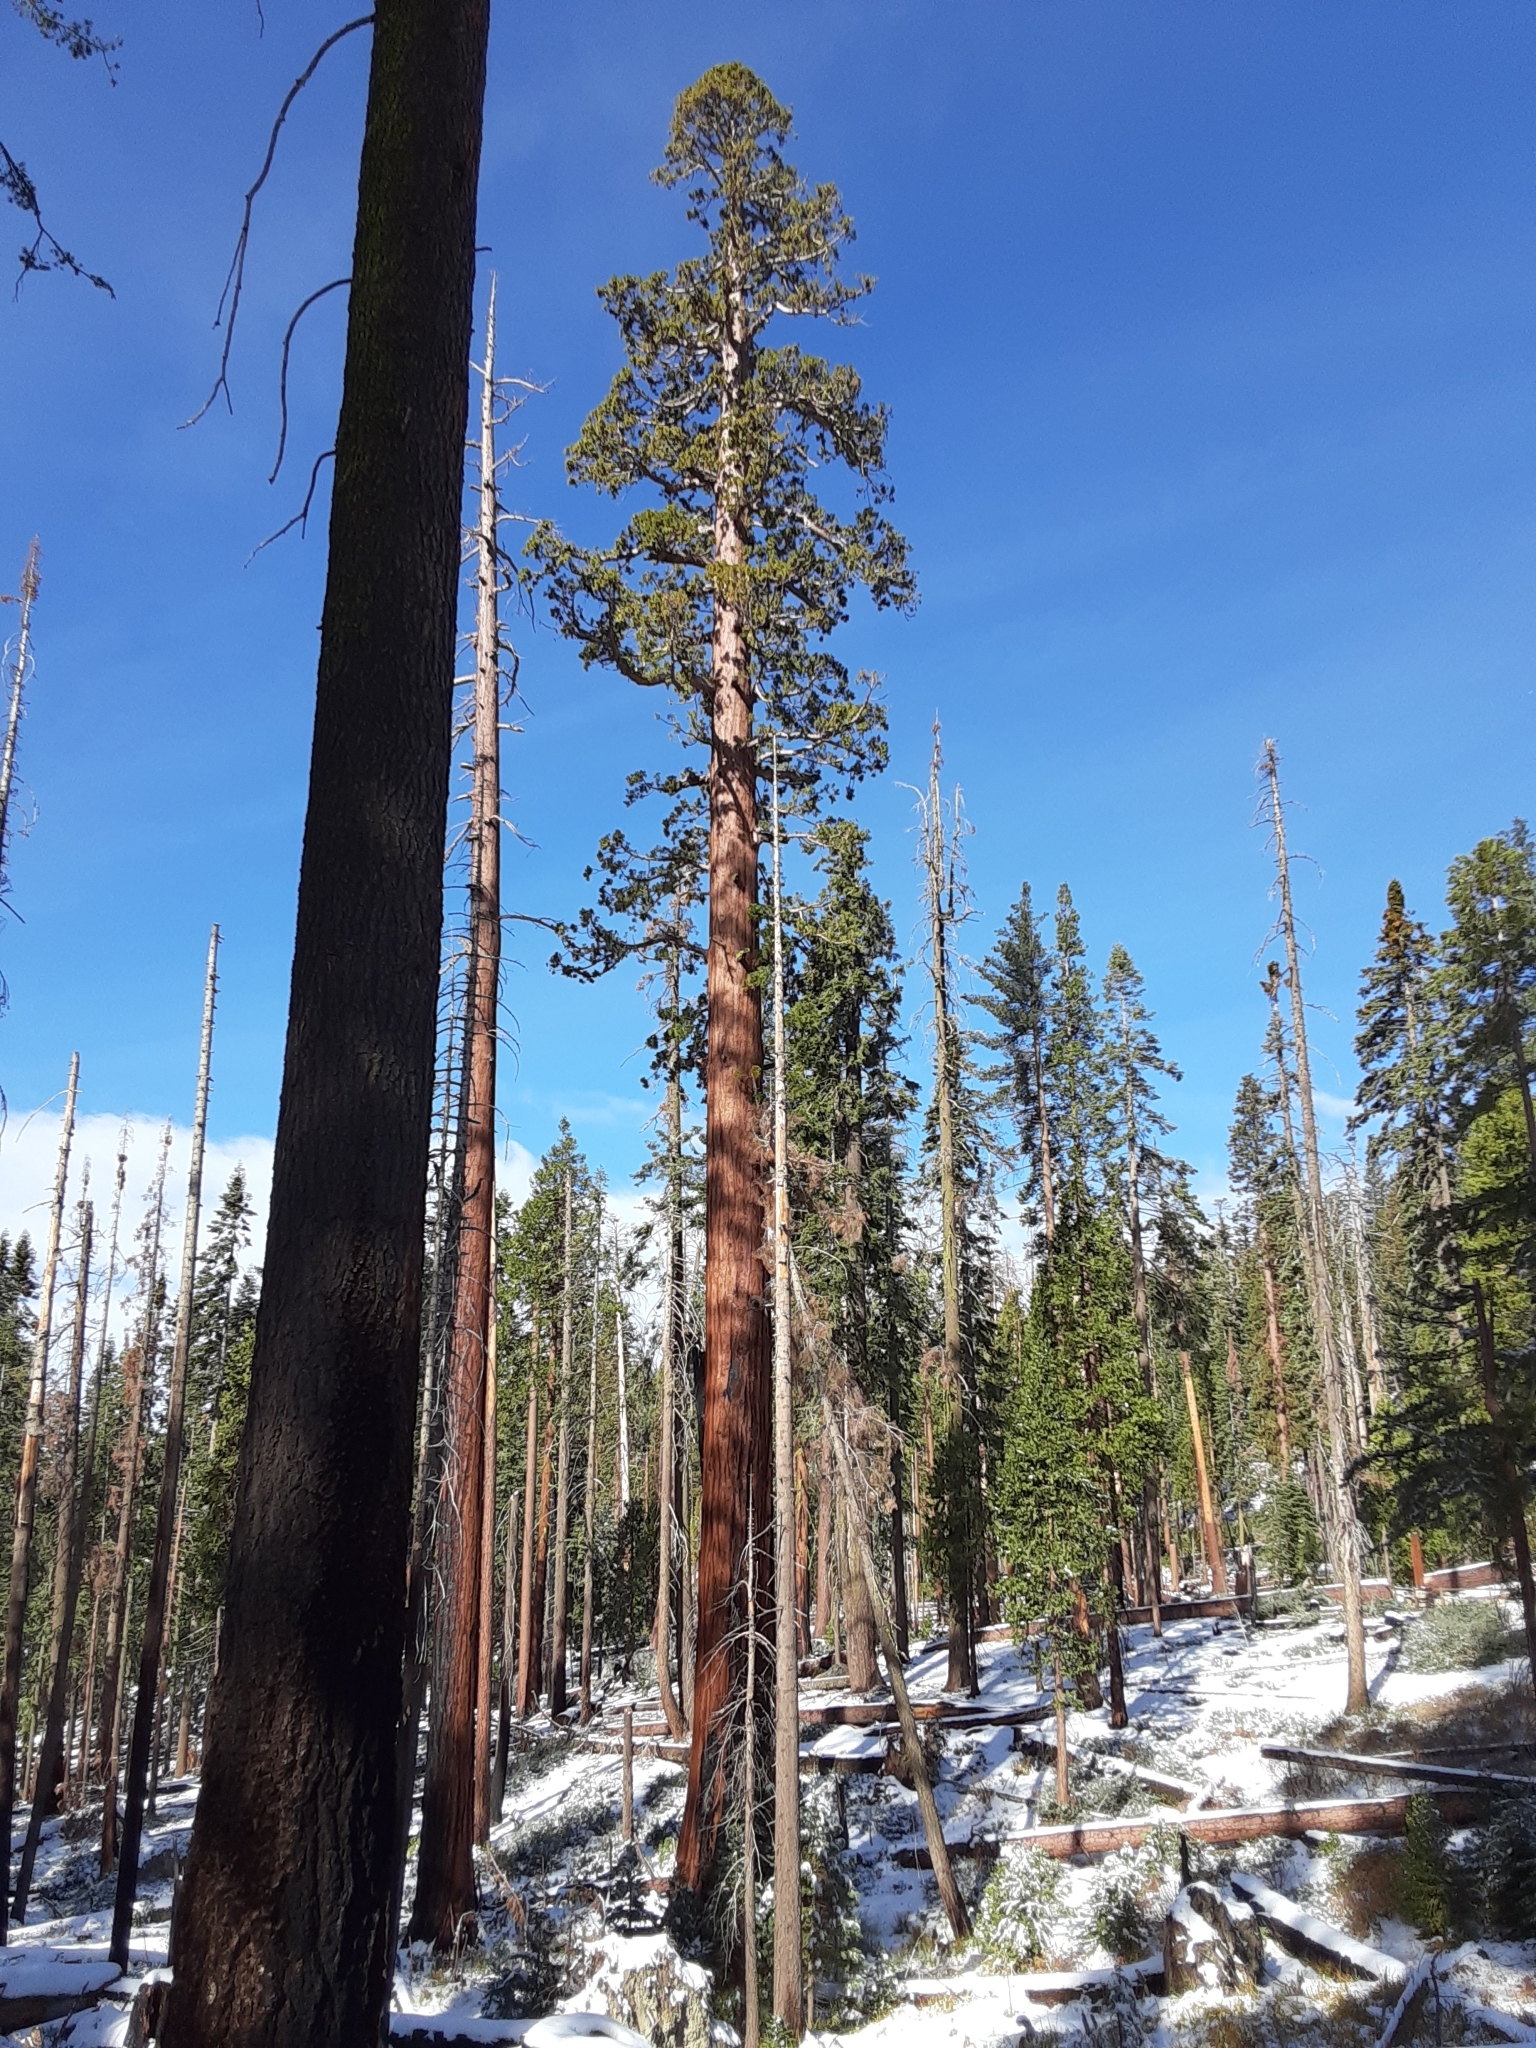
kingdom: Plantae
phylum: Tracheophyta
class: Pinopsida
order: Pinales
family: Cupressaceae
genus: Sequoiadendron
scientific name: Sequoiadendron giganteum
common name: Wellingtonia
